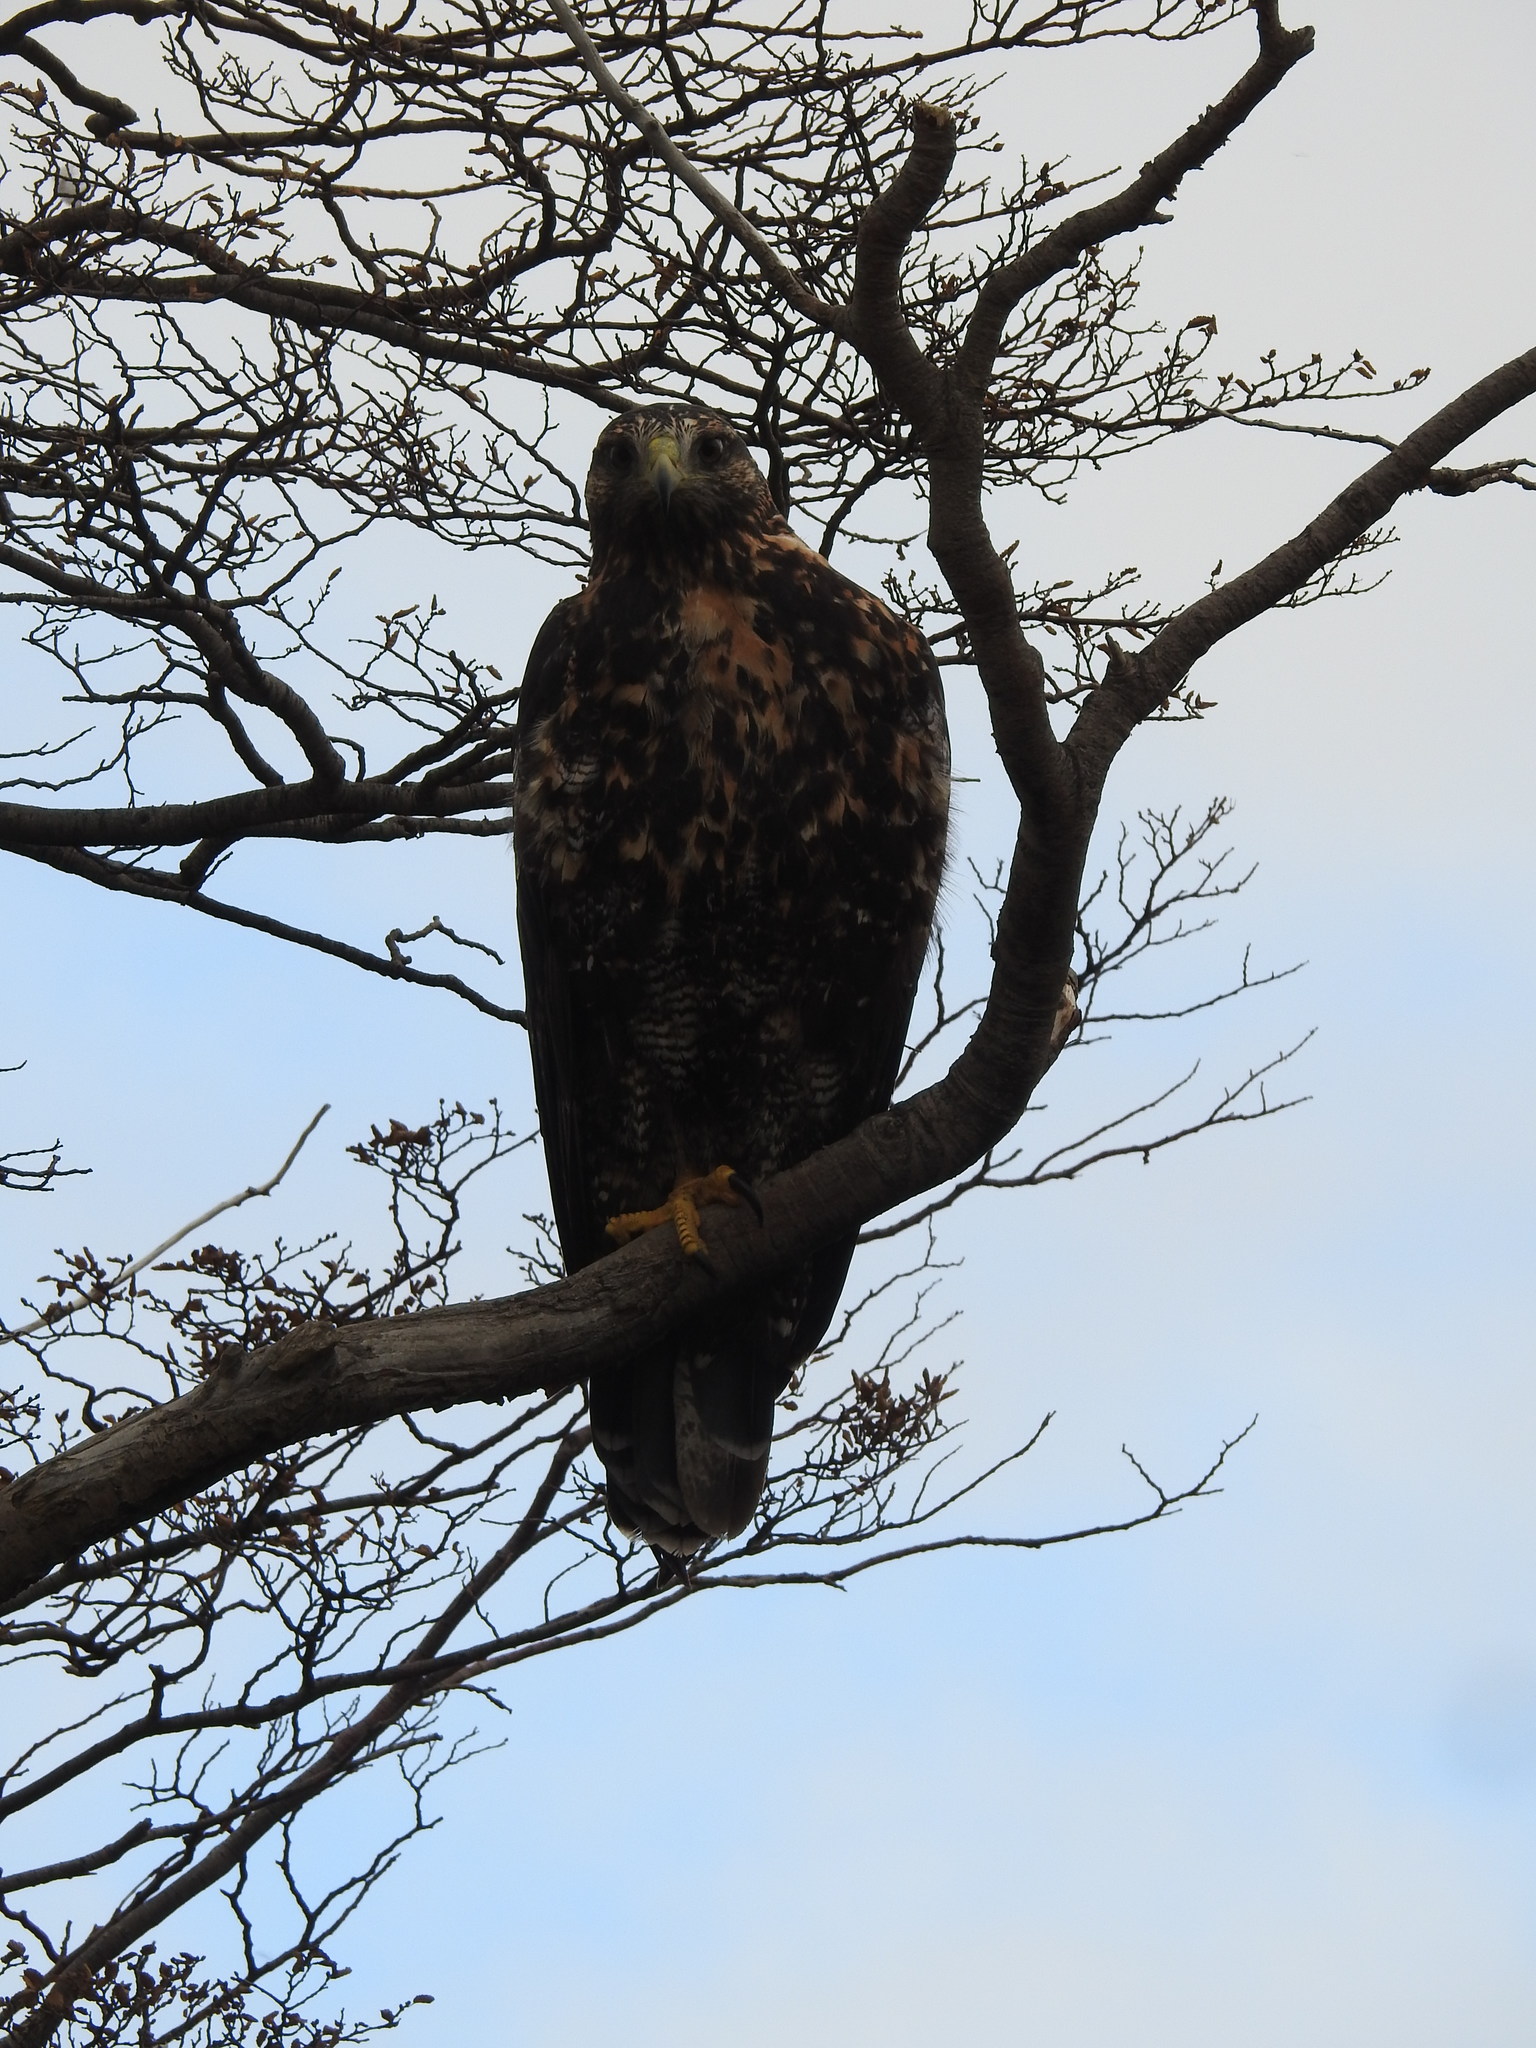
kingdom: Animalia
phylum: Chordata
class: Aves
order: Accipitriformes
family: Accipitridae
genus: Geranoaetus
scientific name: Geranoaetus melanoleucus
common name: Black-chested buzzard-eagle
